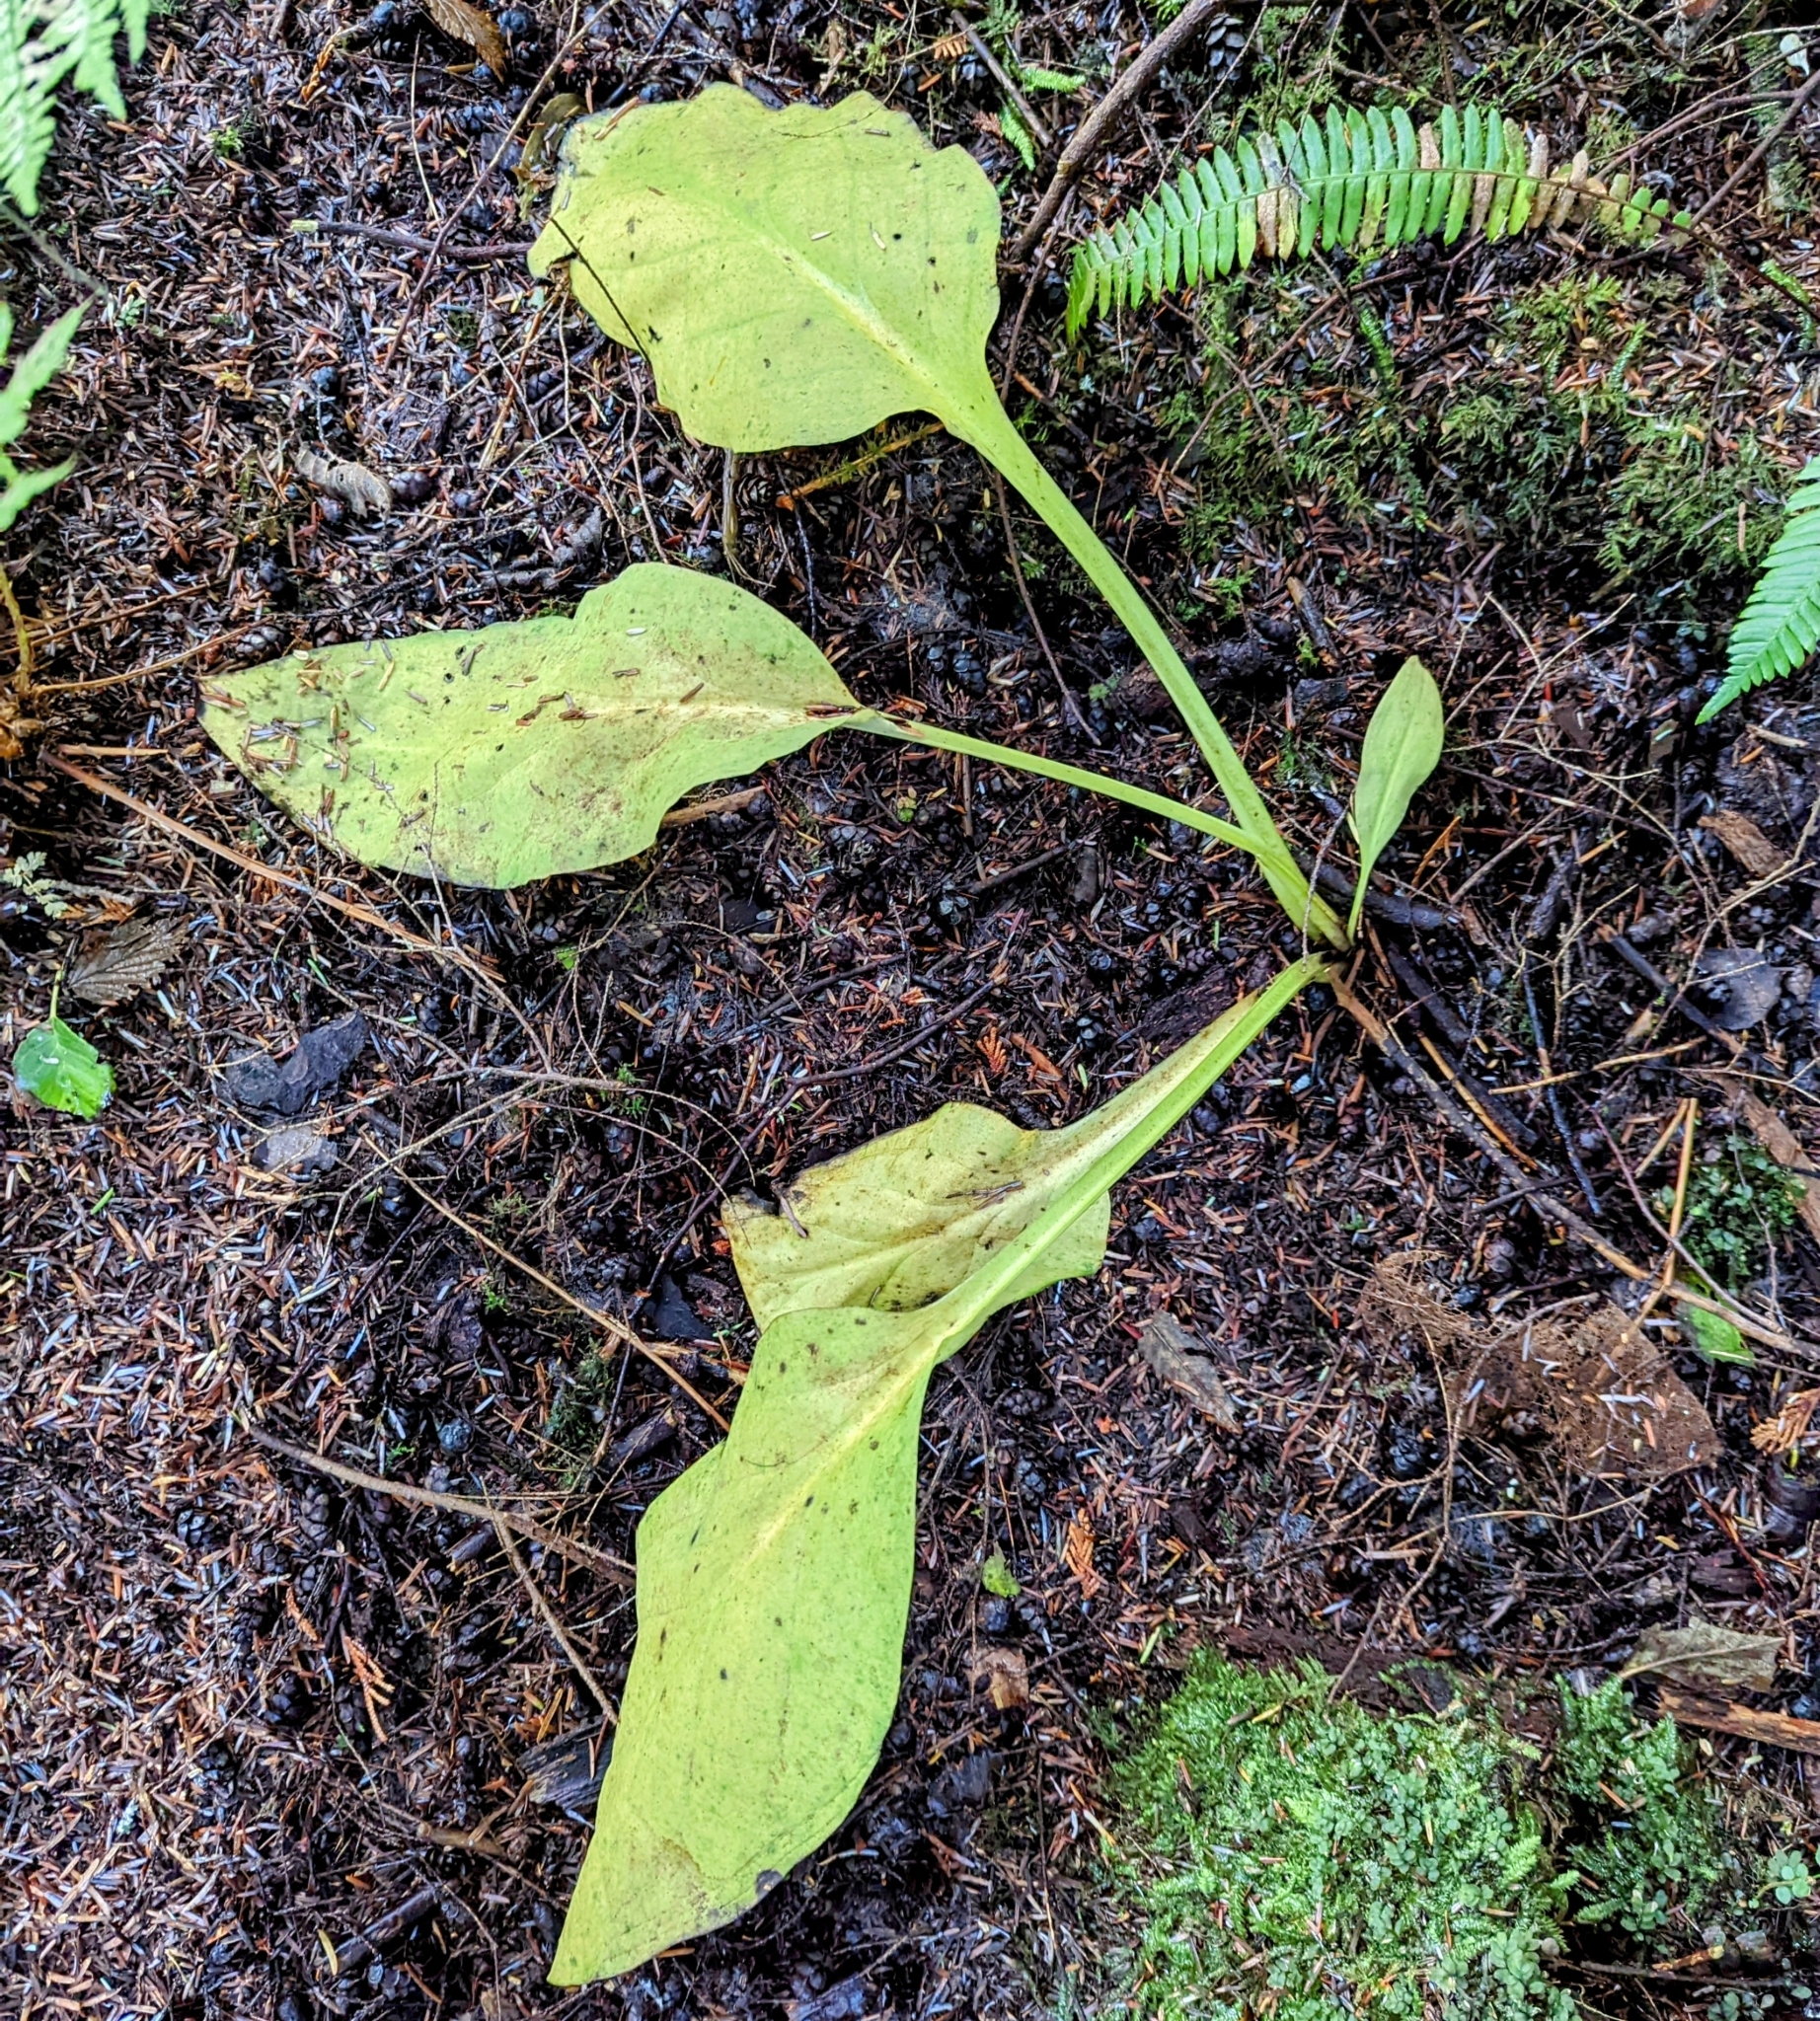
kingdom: Plantae
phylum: Tracheophyta
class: Liliopsida
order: Alismatales
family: Araceae
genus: Lysichiton
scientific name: Lysichiton americanus
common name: American skunk cabbage
